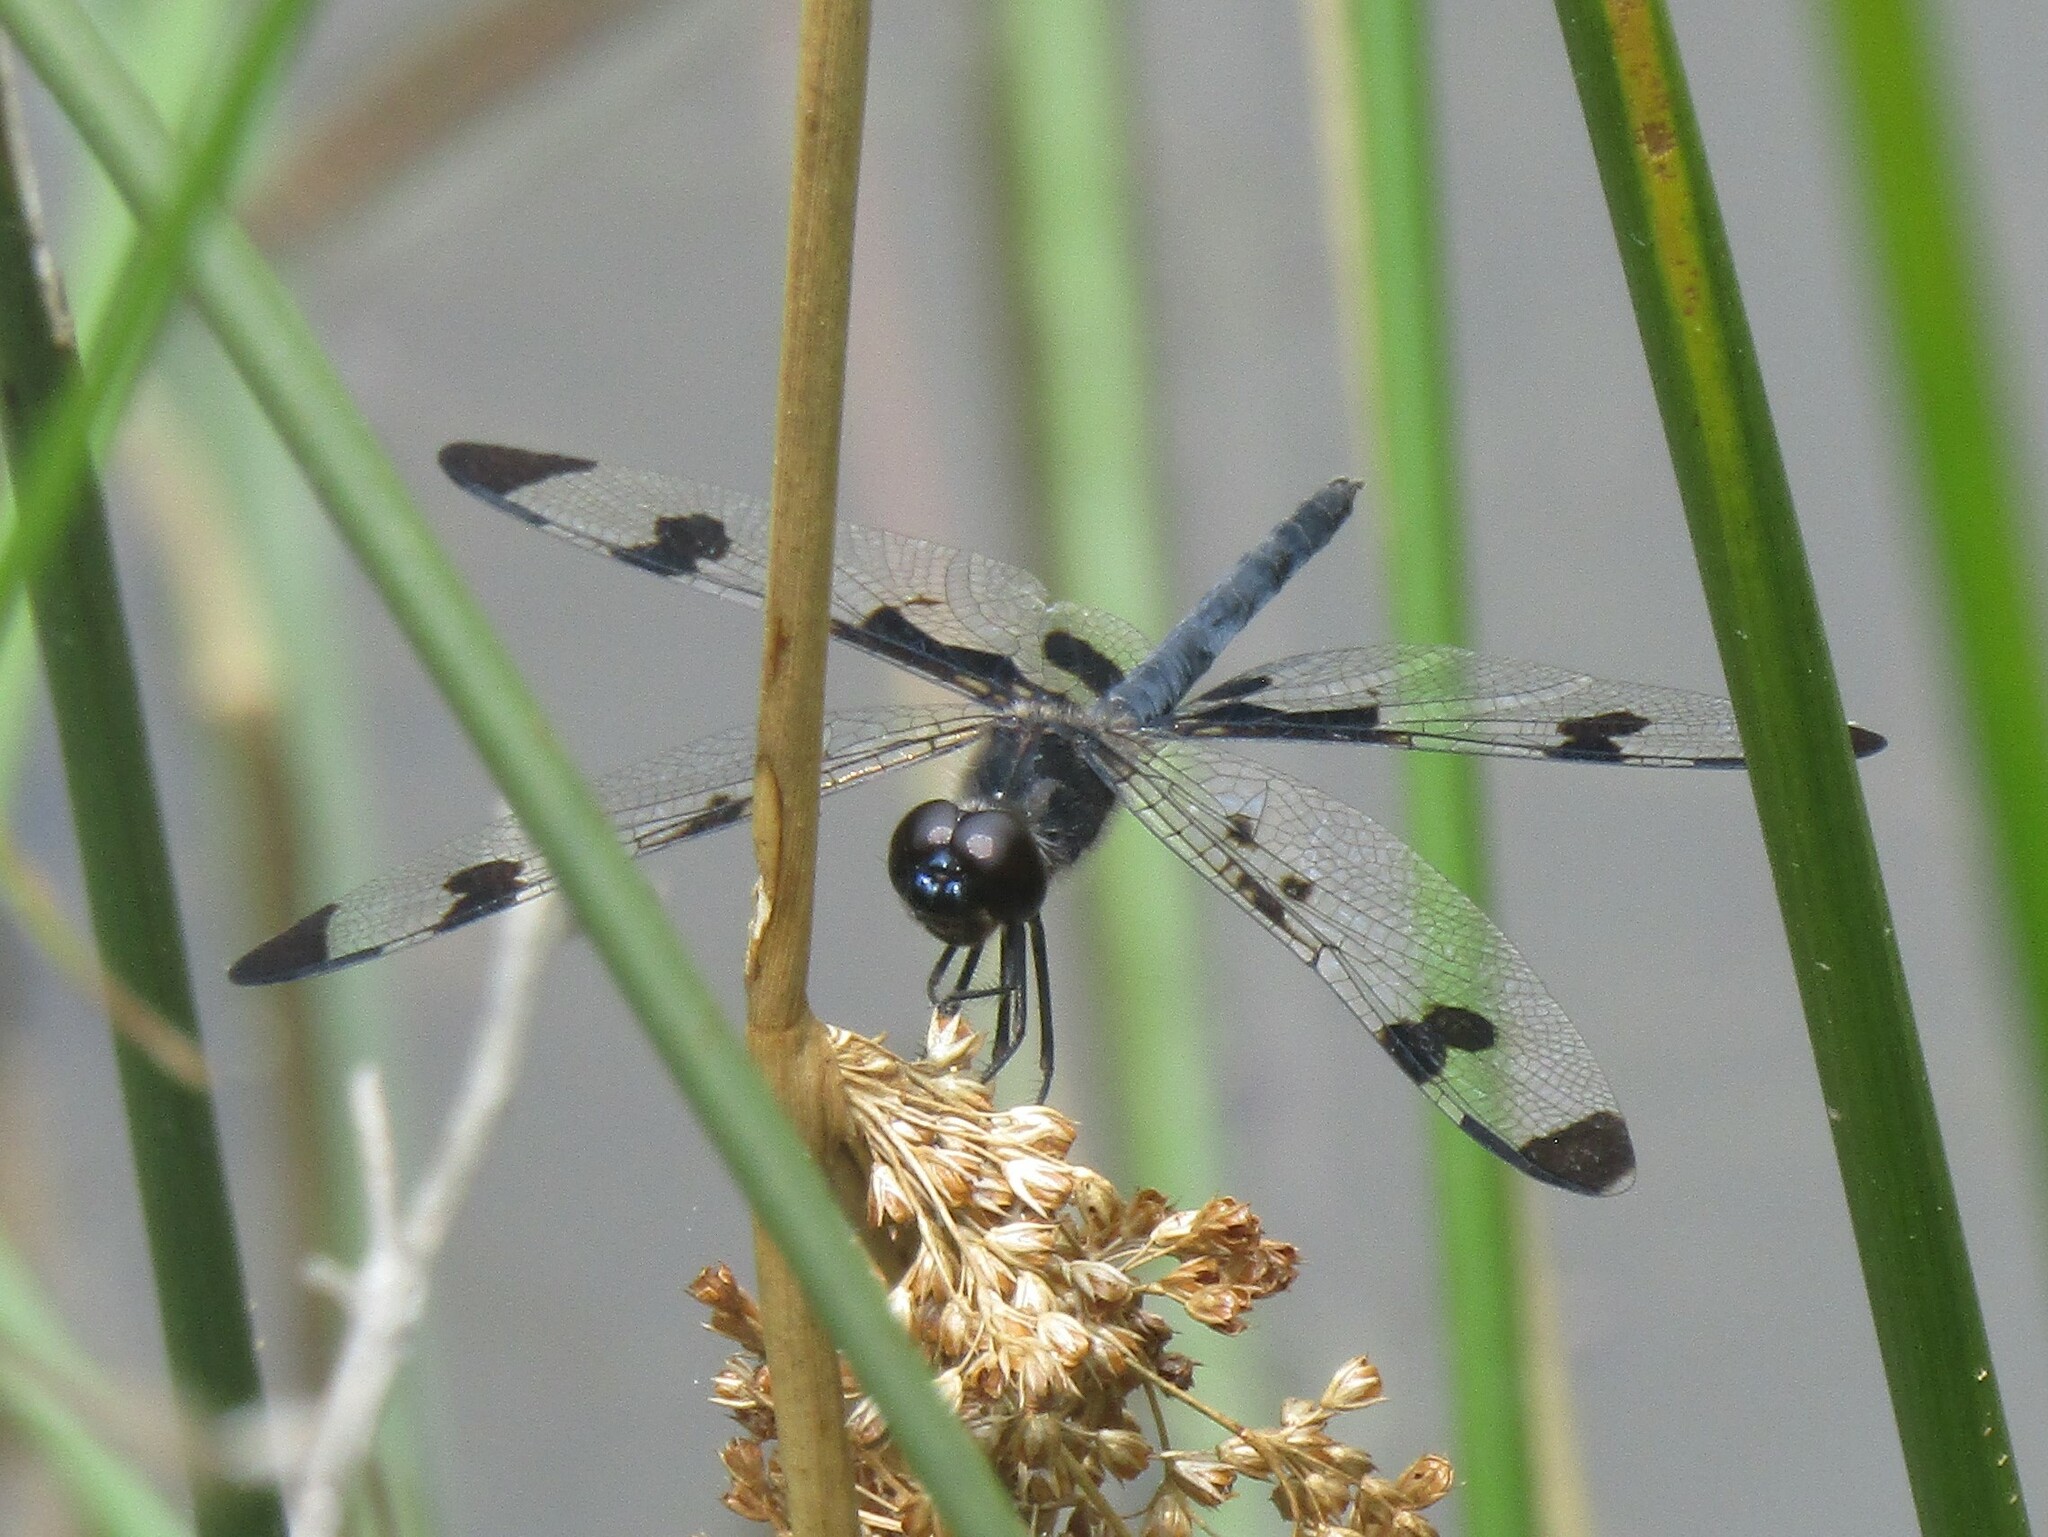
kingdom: Animalia
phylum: Arthropoda
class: Insecta
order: Odonata
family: Libellulidae
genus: Celithemis
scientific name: Celithemis fasciata
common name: Banded pennant
